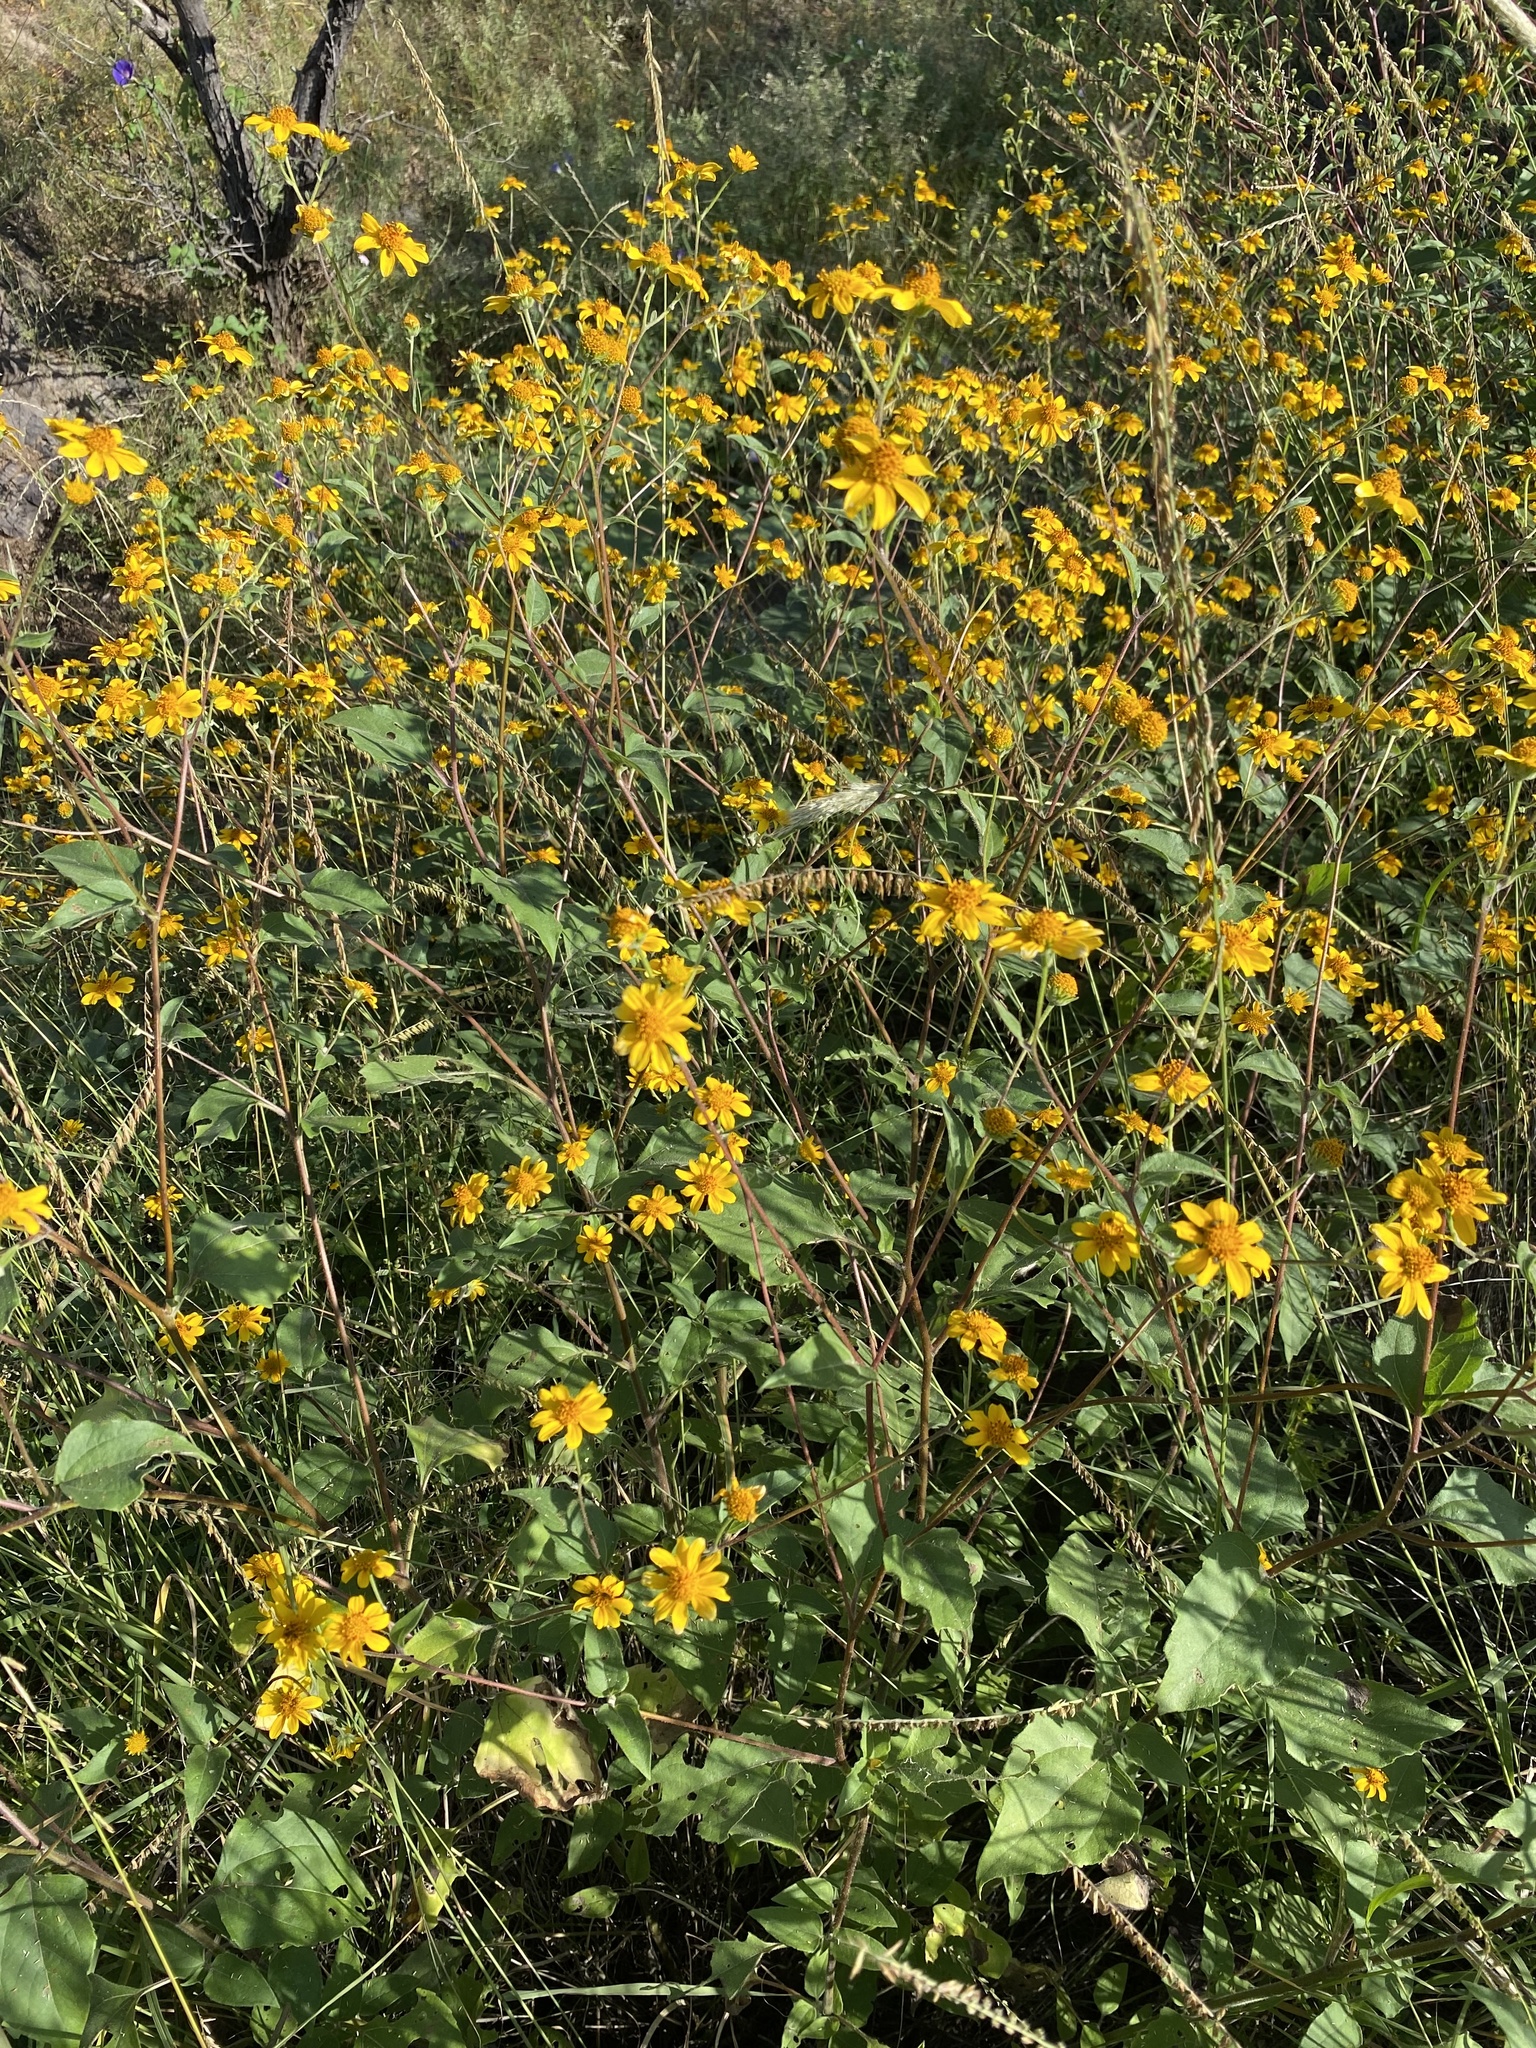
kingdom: Plantae
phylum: Tracheophyta
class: Magnoliopsida
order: Asterales
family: Asteraceae
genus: Viguiera
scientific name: Viguiera dentata
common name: Toothleaf
